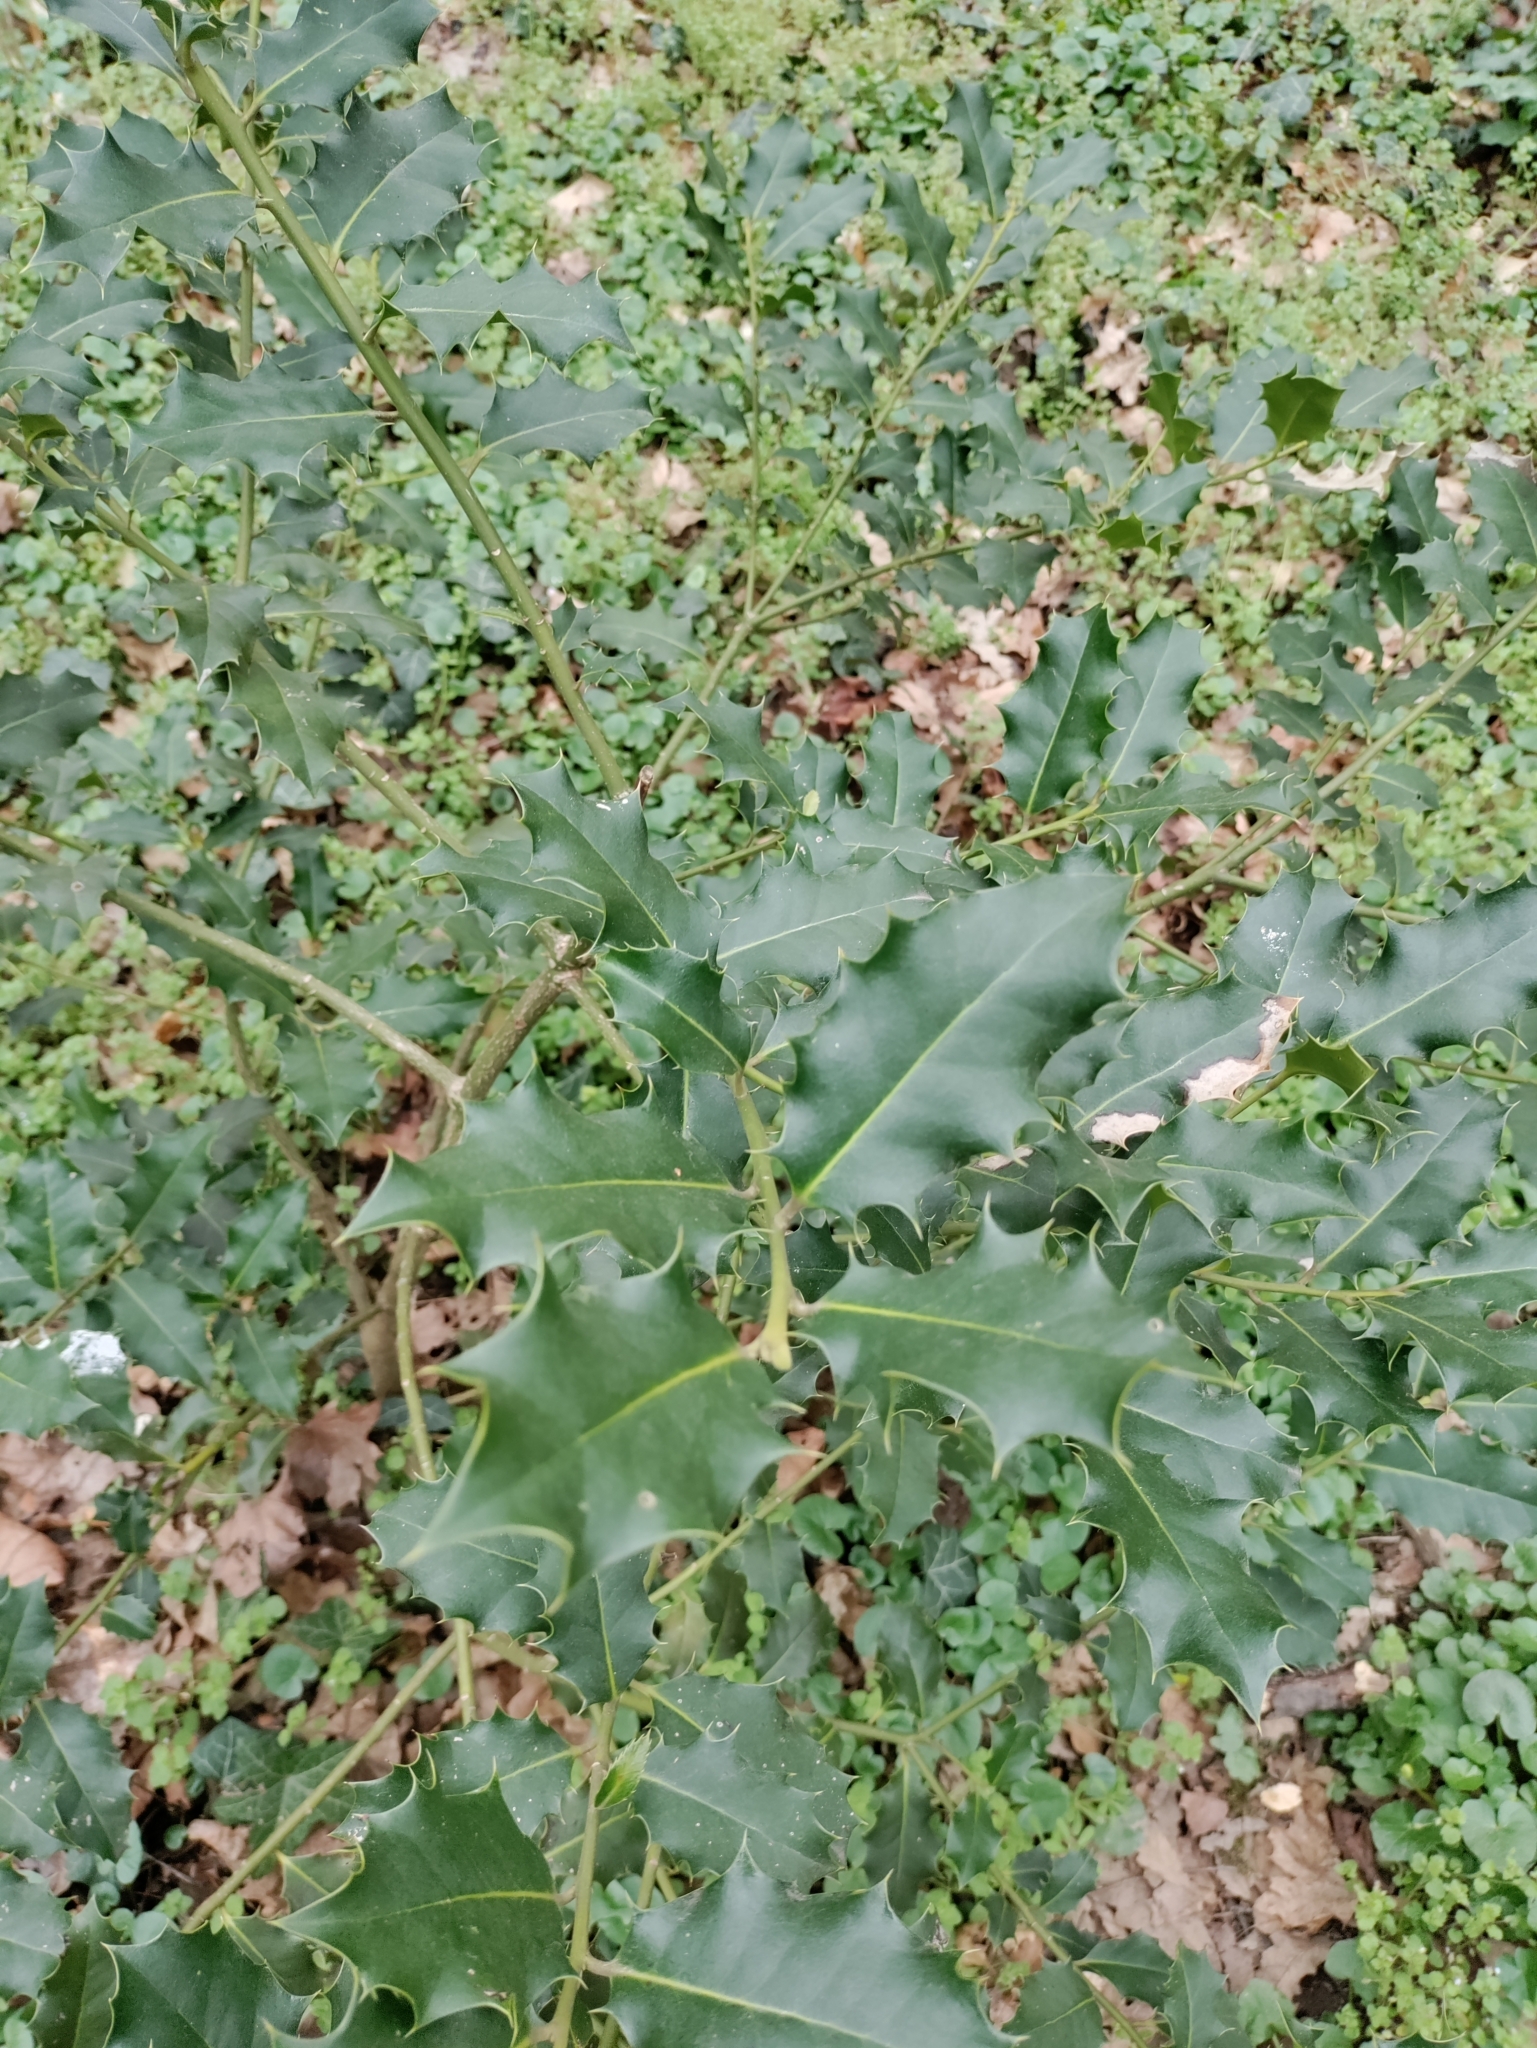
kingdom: Plantae
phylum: Tracheophyta
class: Magnoliopsida
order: Aquifoliales
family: Aquifoliaceae
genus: Ilex
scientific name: Ilex aquifolium
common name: English holly
